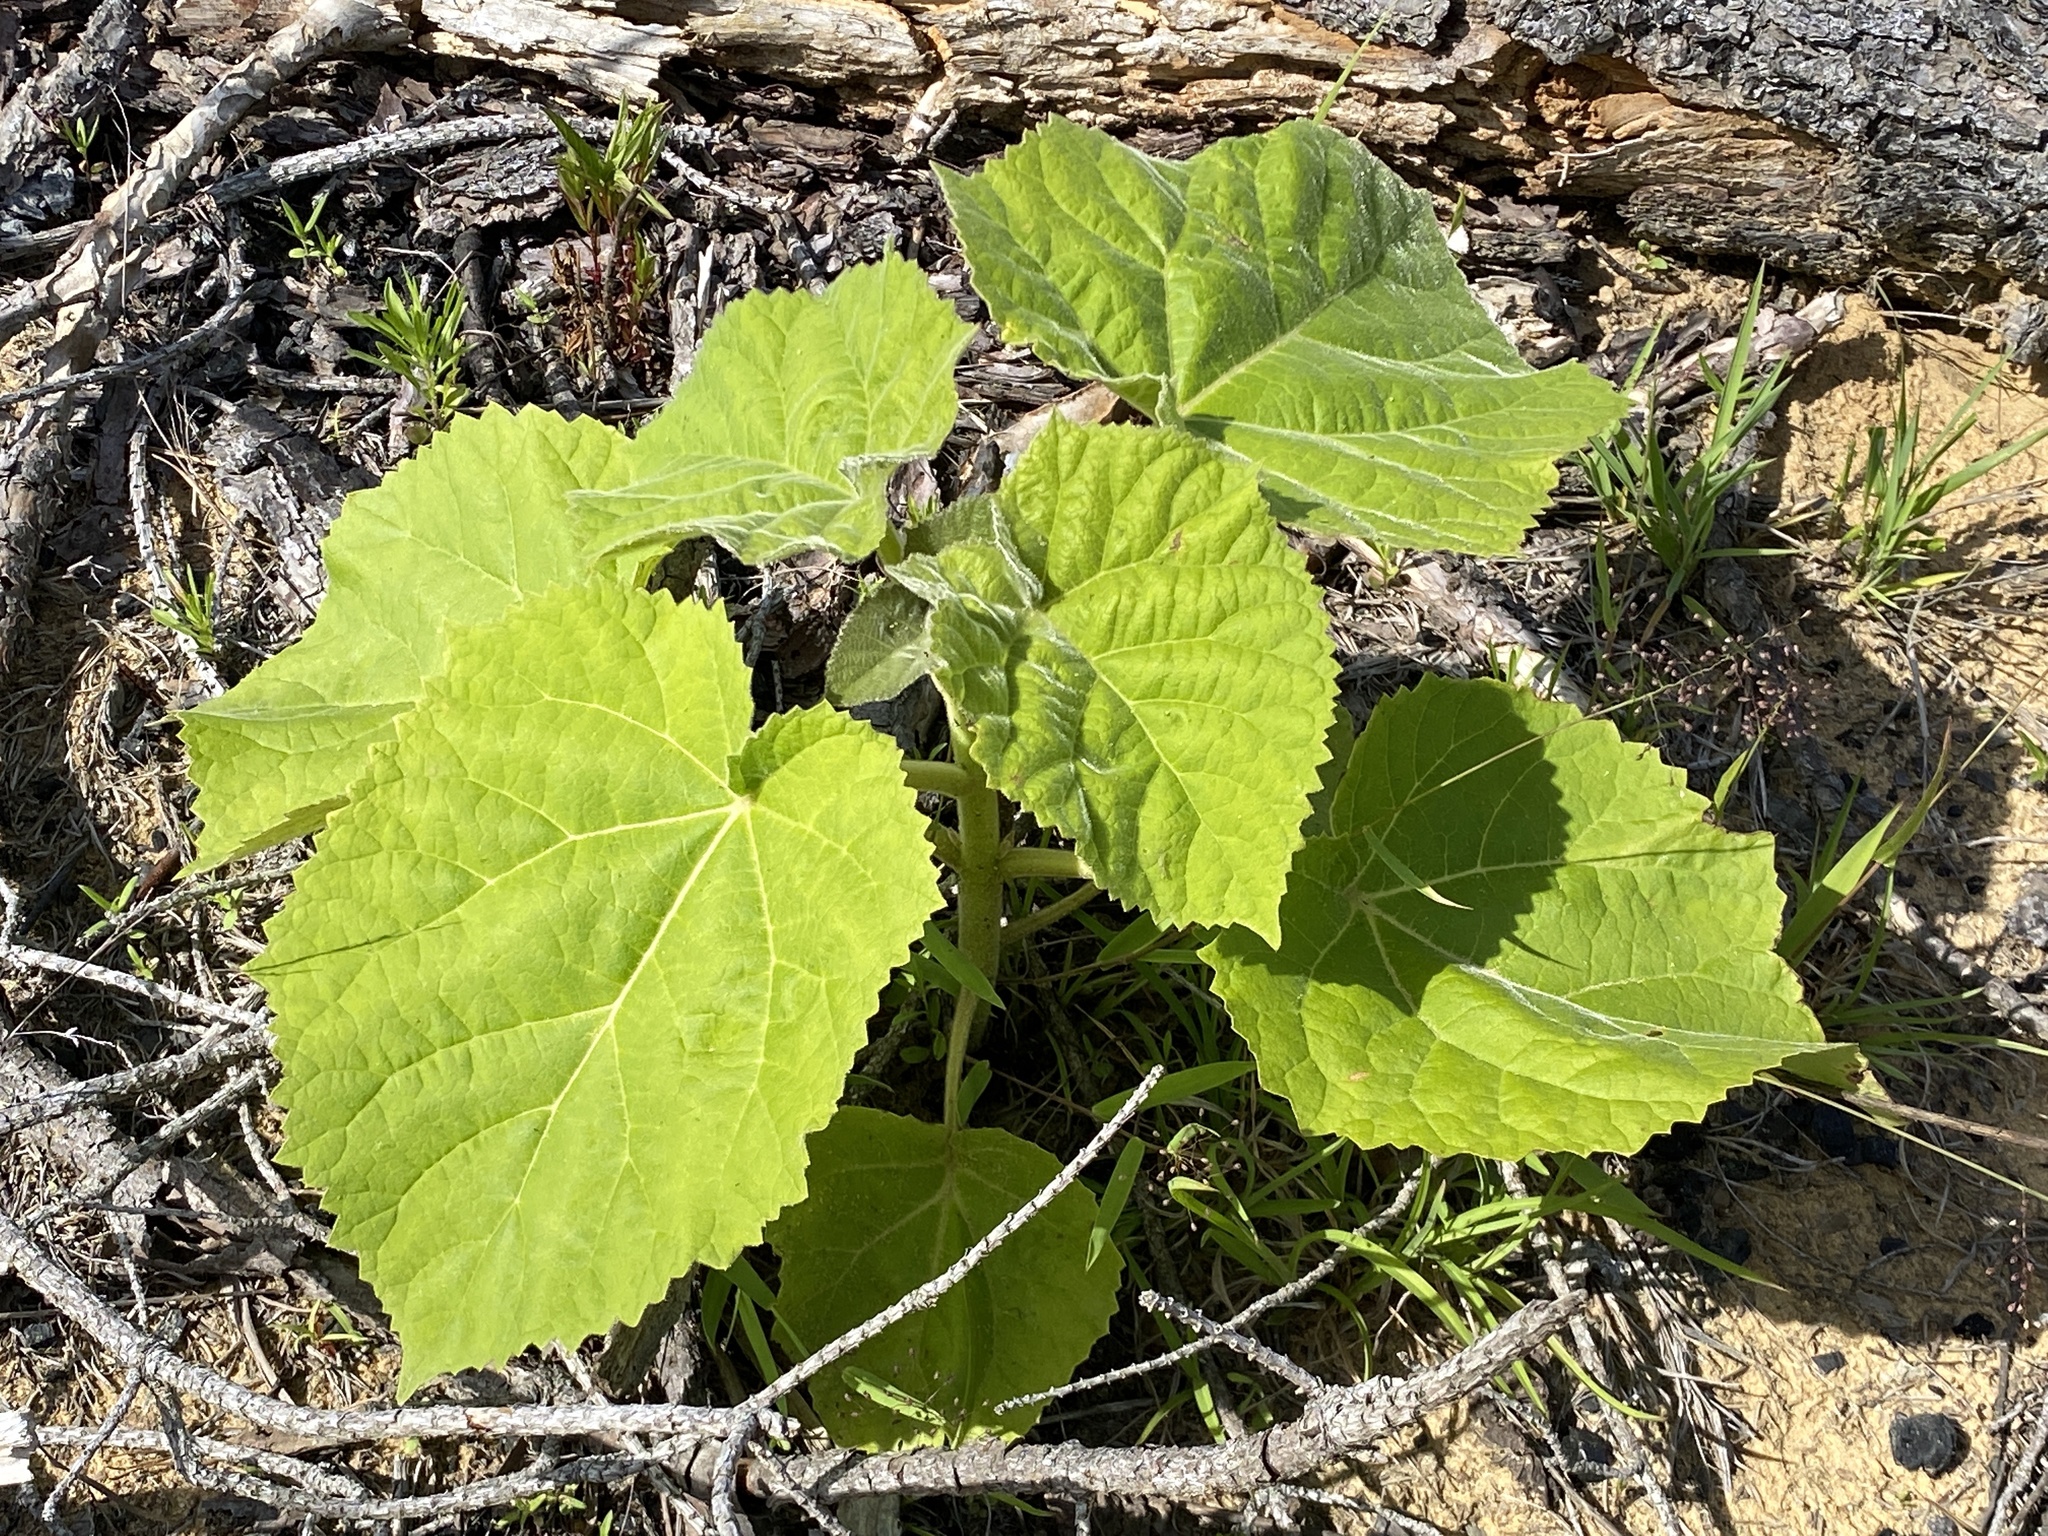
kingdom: Plantae
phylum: Tracheophyta
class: Magnoliopsida
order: Lamiales
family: Paulowniaceae
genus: Paulownia
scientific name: Paulownia tomentosa
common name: Foxglove-tree
